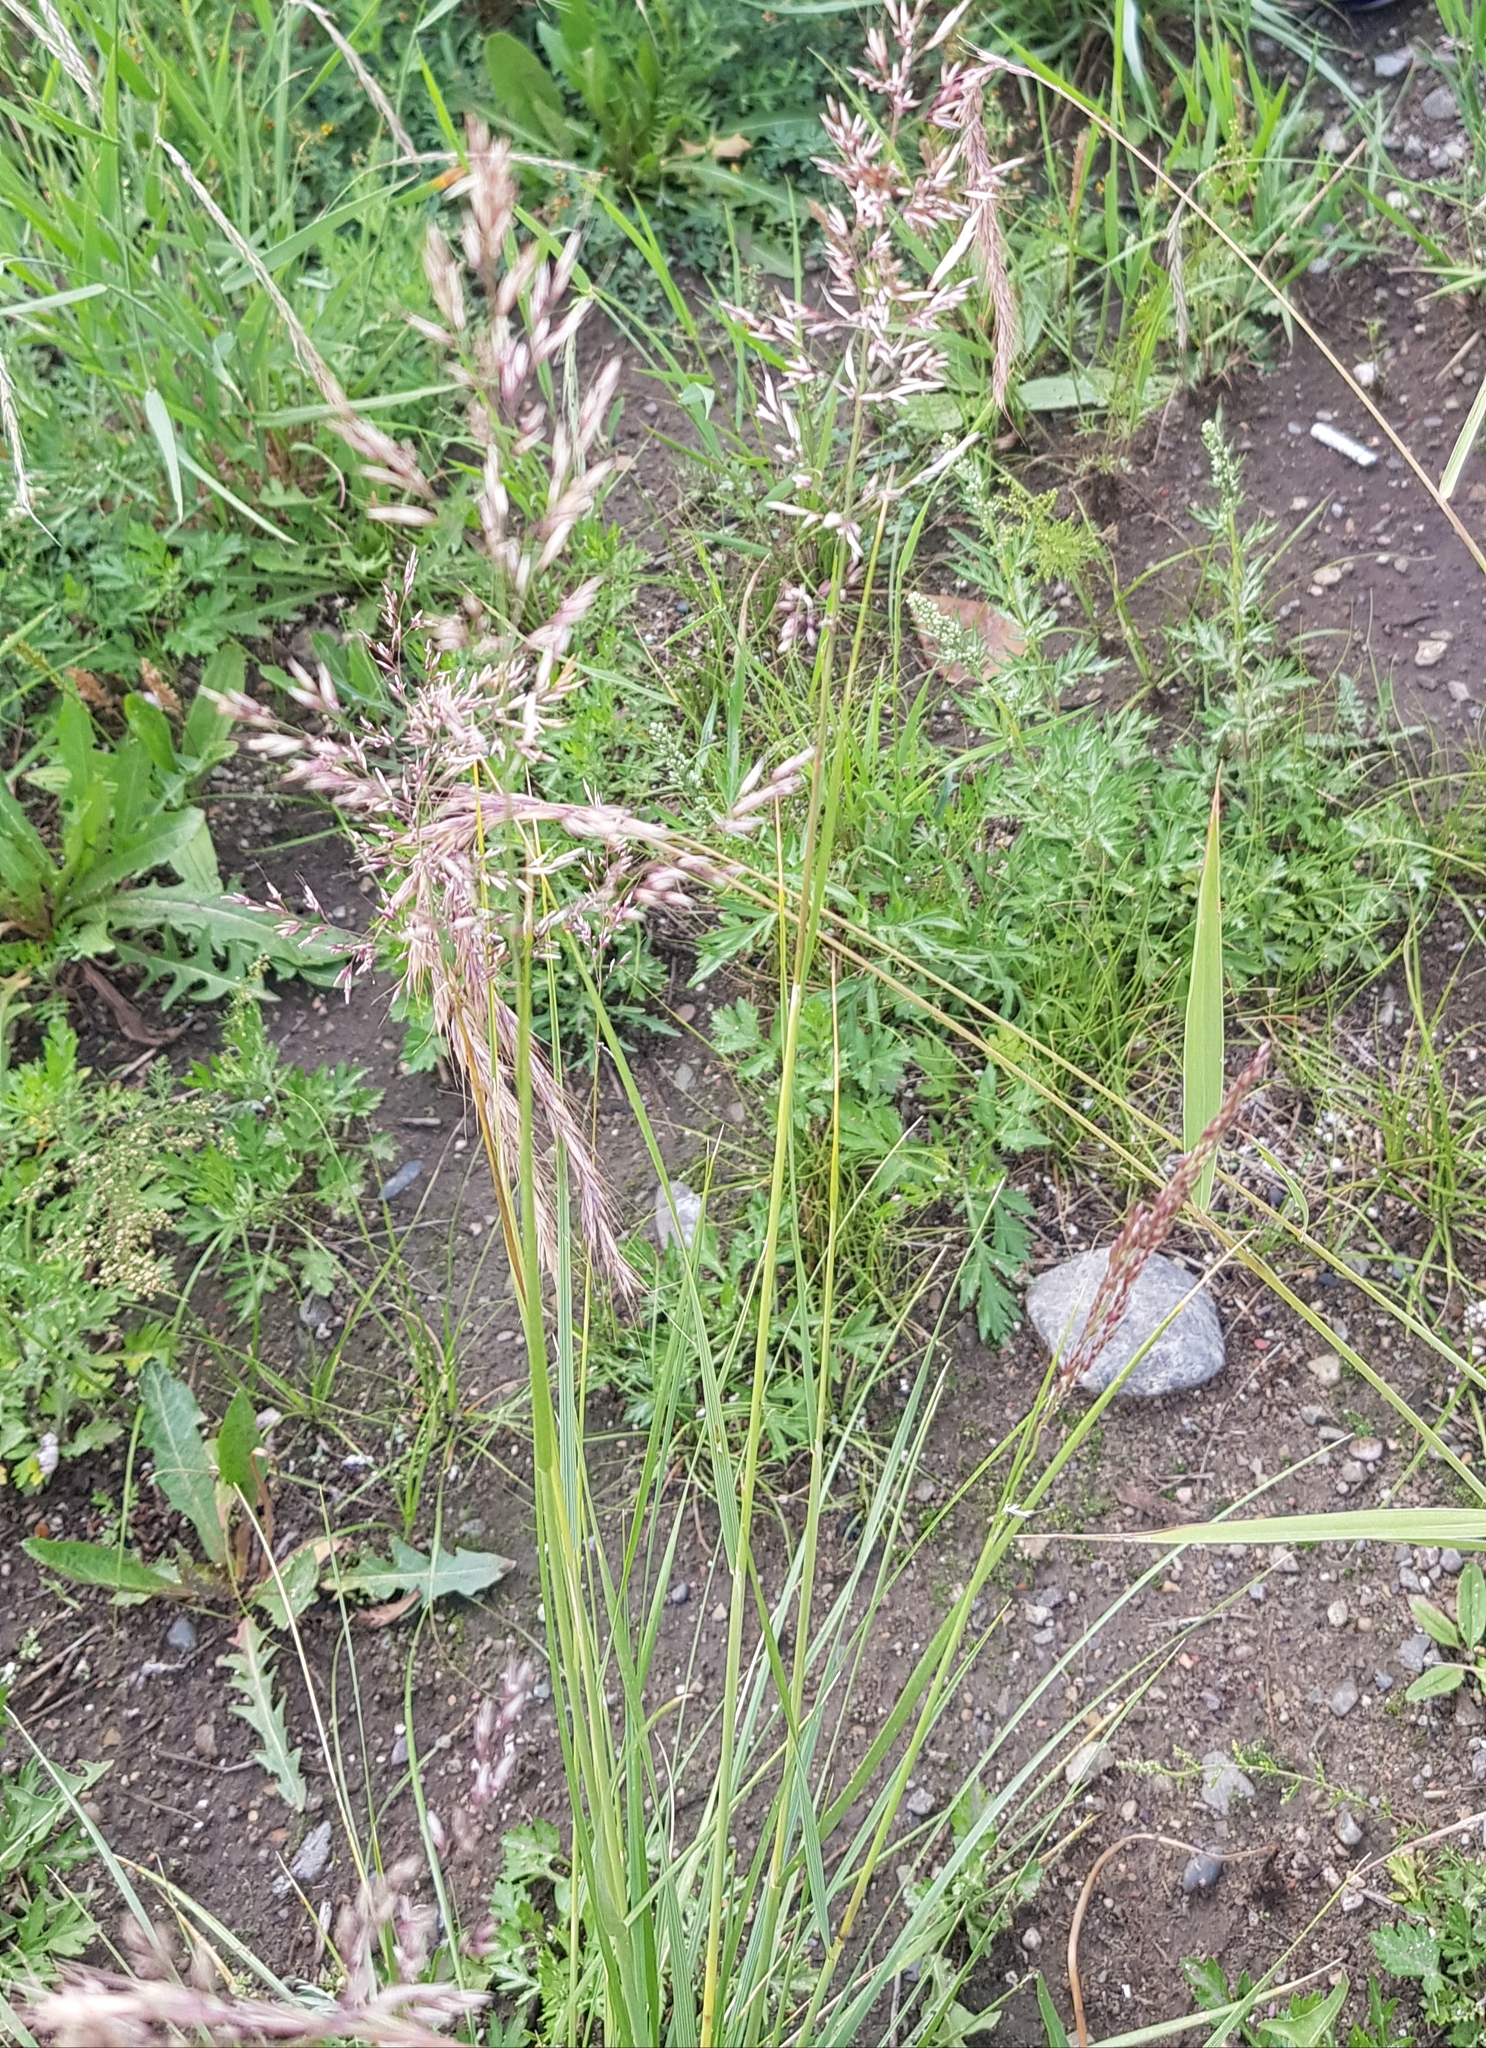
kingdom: Plantae
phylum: Tracheophyta
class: Liliopsida
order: Poales
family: Poaceae
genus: Poa
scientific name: Poa pratensis
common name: Kentucky bluegrass
